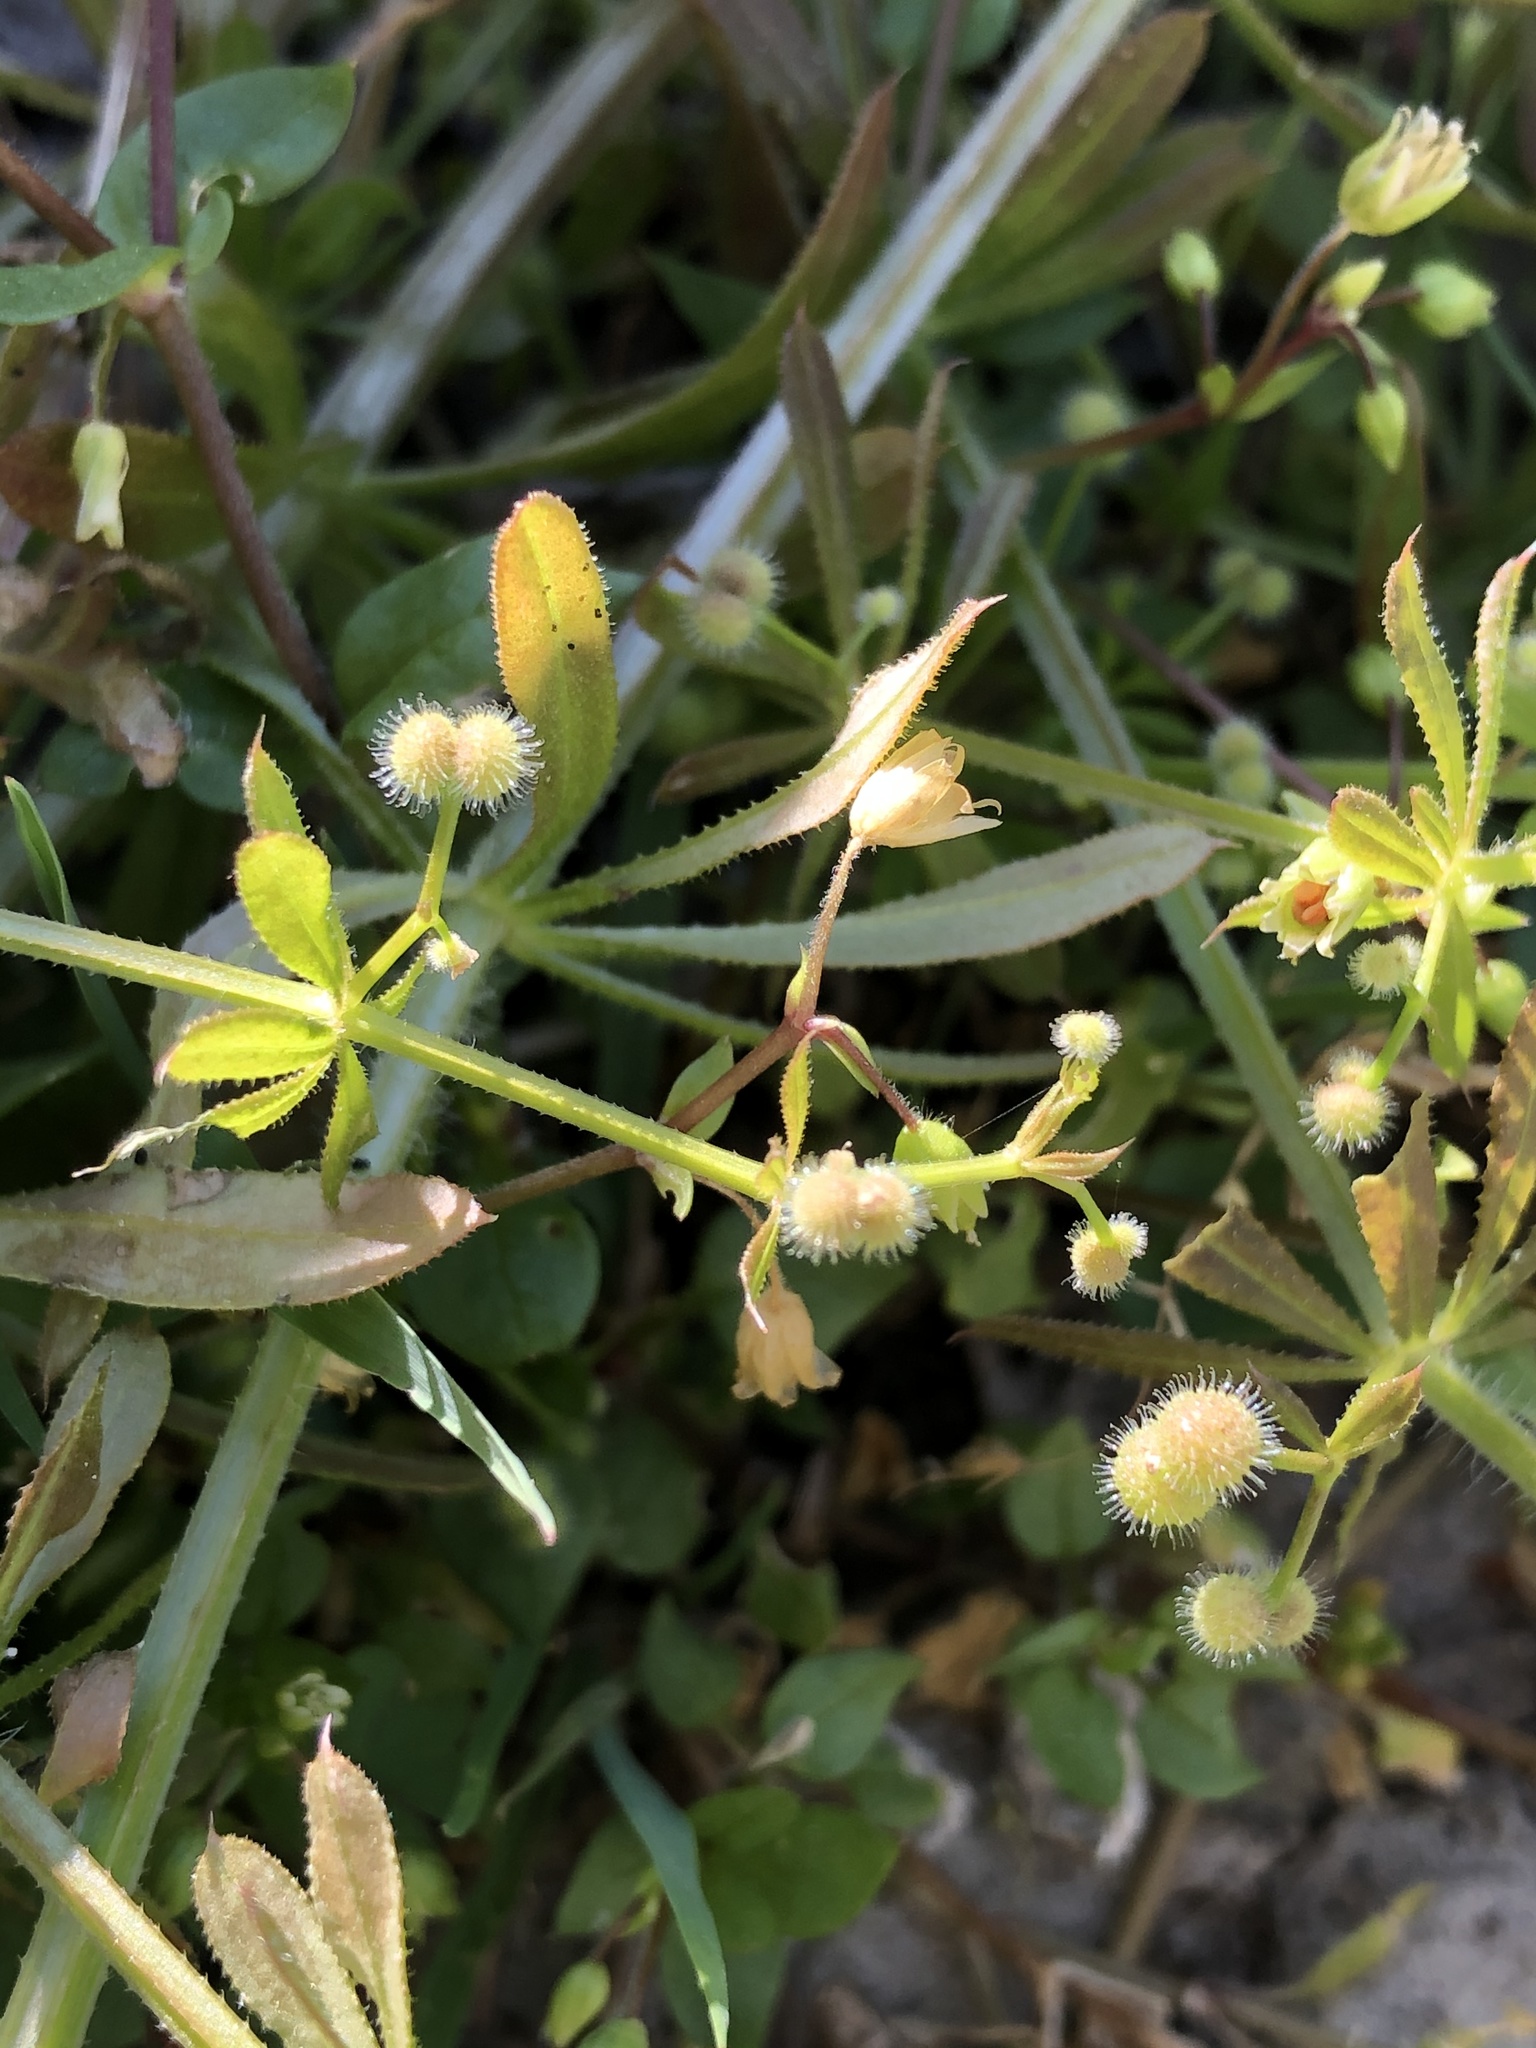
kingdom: Plantae
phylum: Tracheophyta
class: Magnoliopsida
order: Gentianales
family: Rubiaceae
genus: Galium
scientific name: Galium aparine
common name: Cleavers
